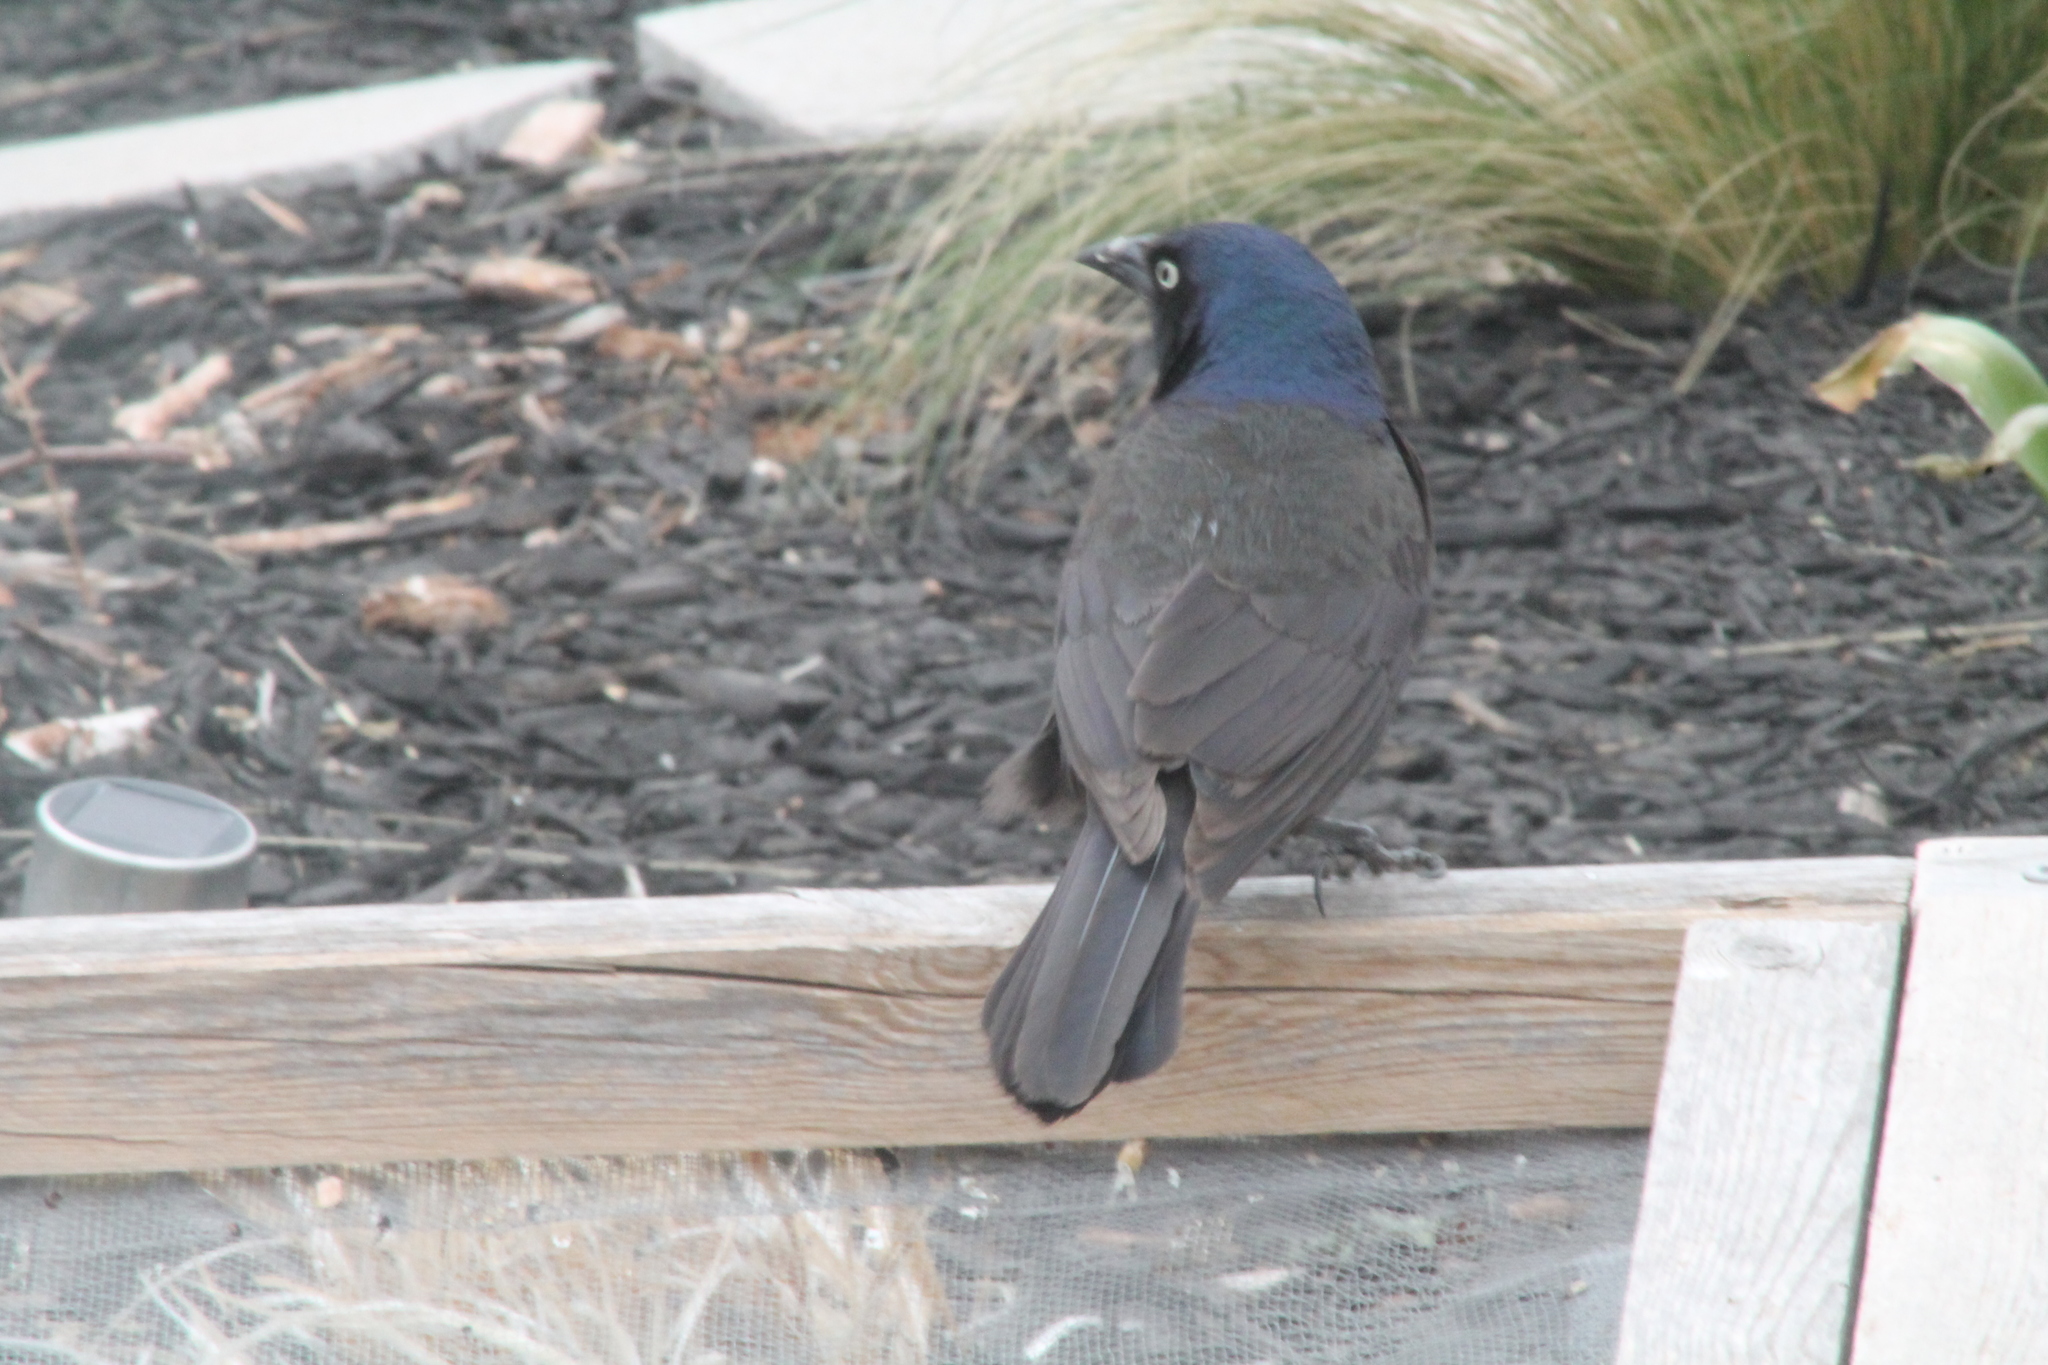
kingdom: Animalia
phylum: Chordata
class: Aves
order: Passeriformes
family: Icteridae
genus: Quiscalus
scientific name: Quiscalus quiscula
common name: Common grackle
